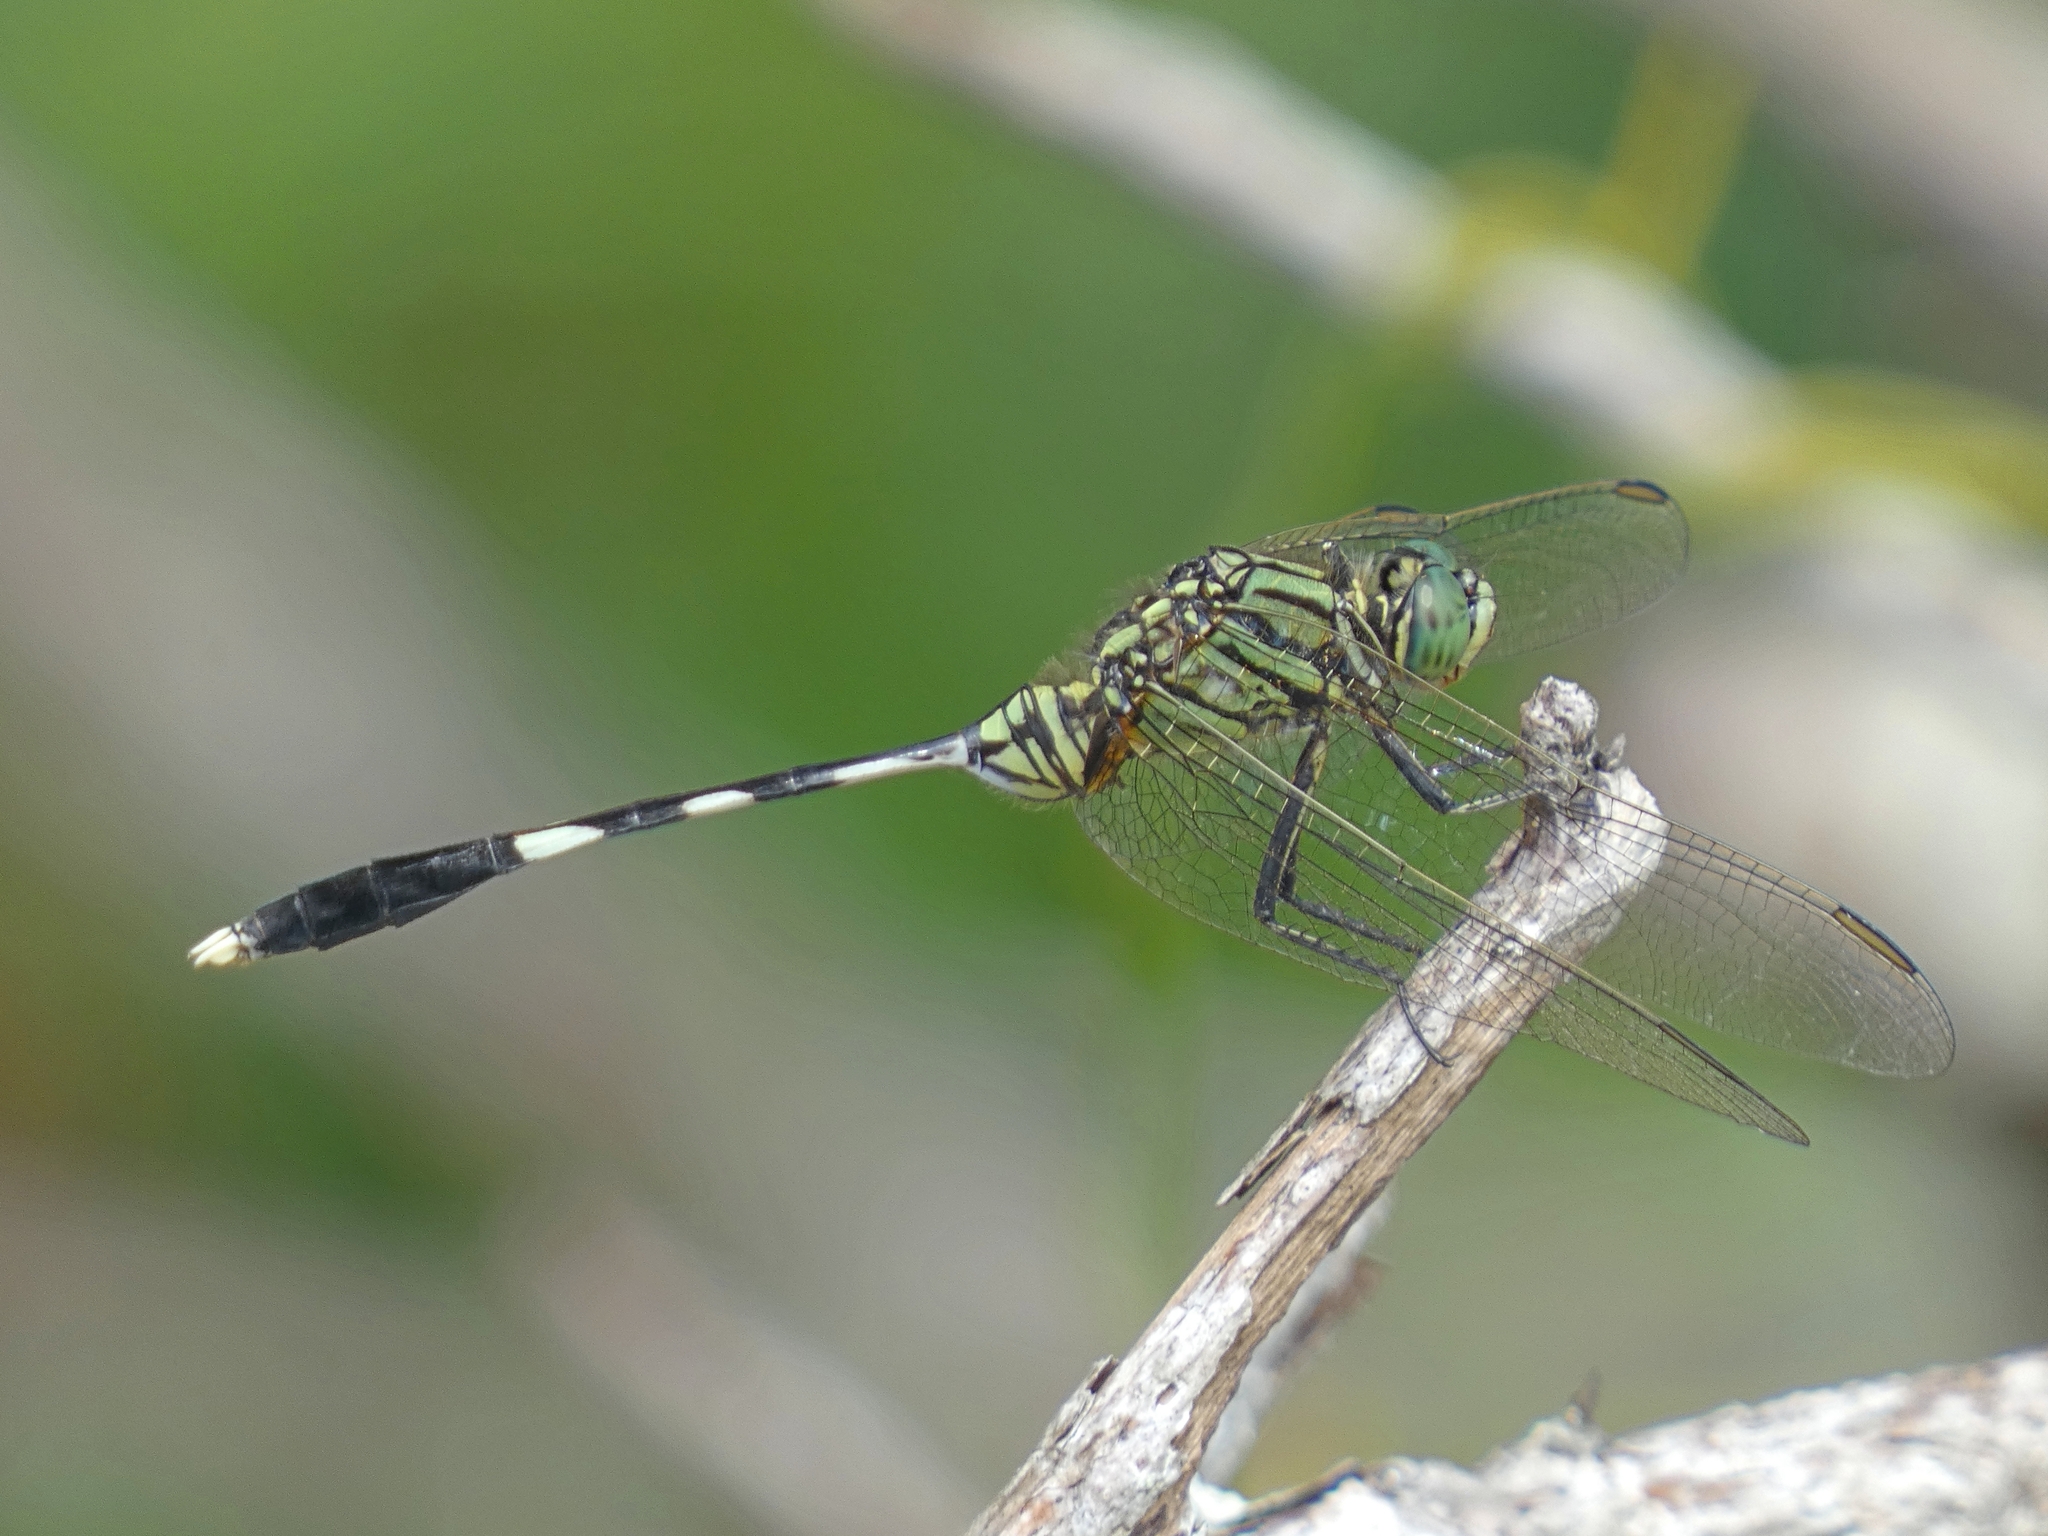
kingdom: Animalia
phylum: Arthropoda
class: Insecta
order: Odonata
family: Libellulidae
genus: Orthetrum
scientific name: Orthetrum sabina
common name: Slender skimmer
